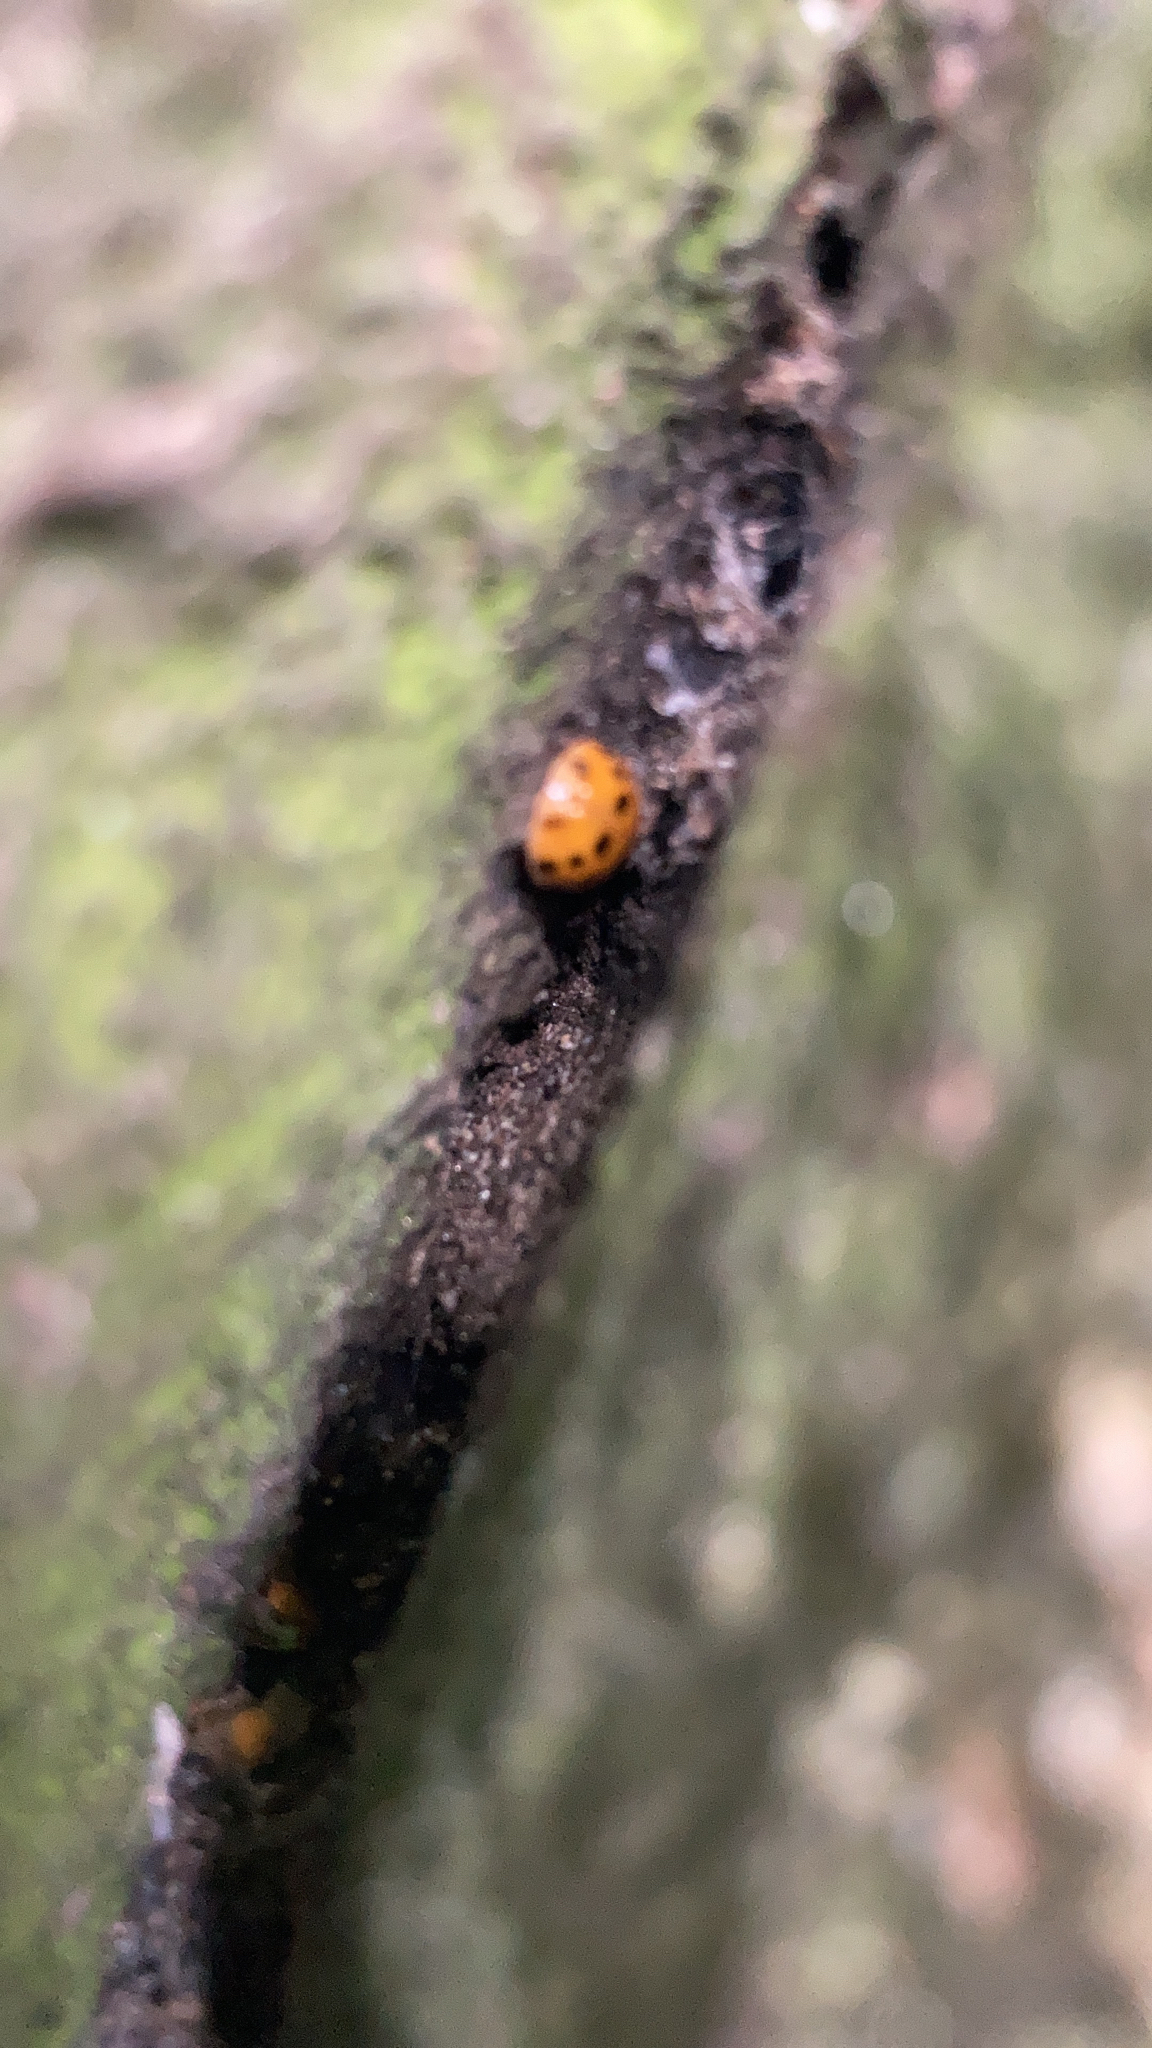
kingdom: Animalia
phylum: Arthropoda
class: Insecta
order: Coleoptera
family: Coccinellidae
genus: Harmonia
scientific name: Harmonia axyridis
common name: Harlequin ladybird
